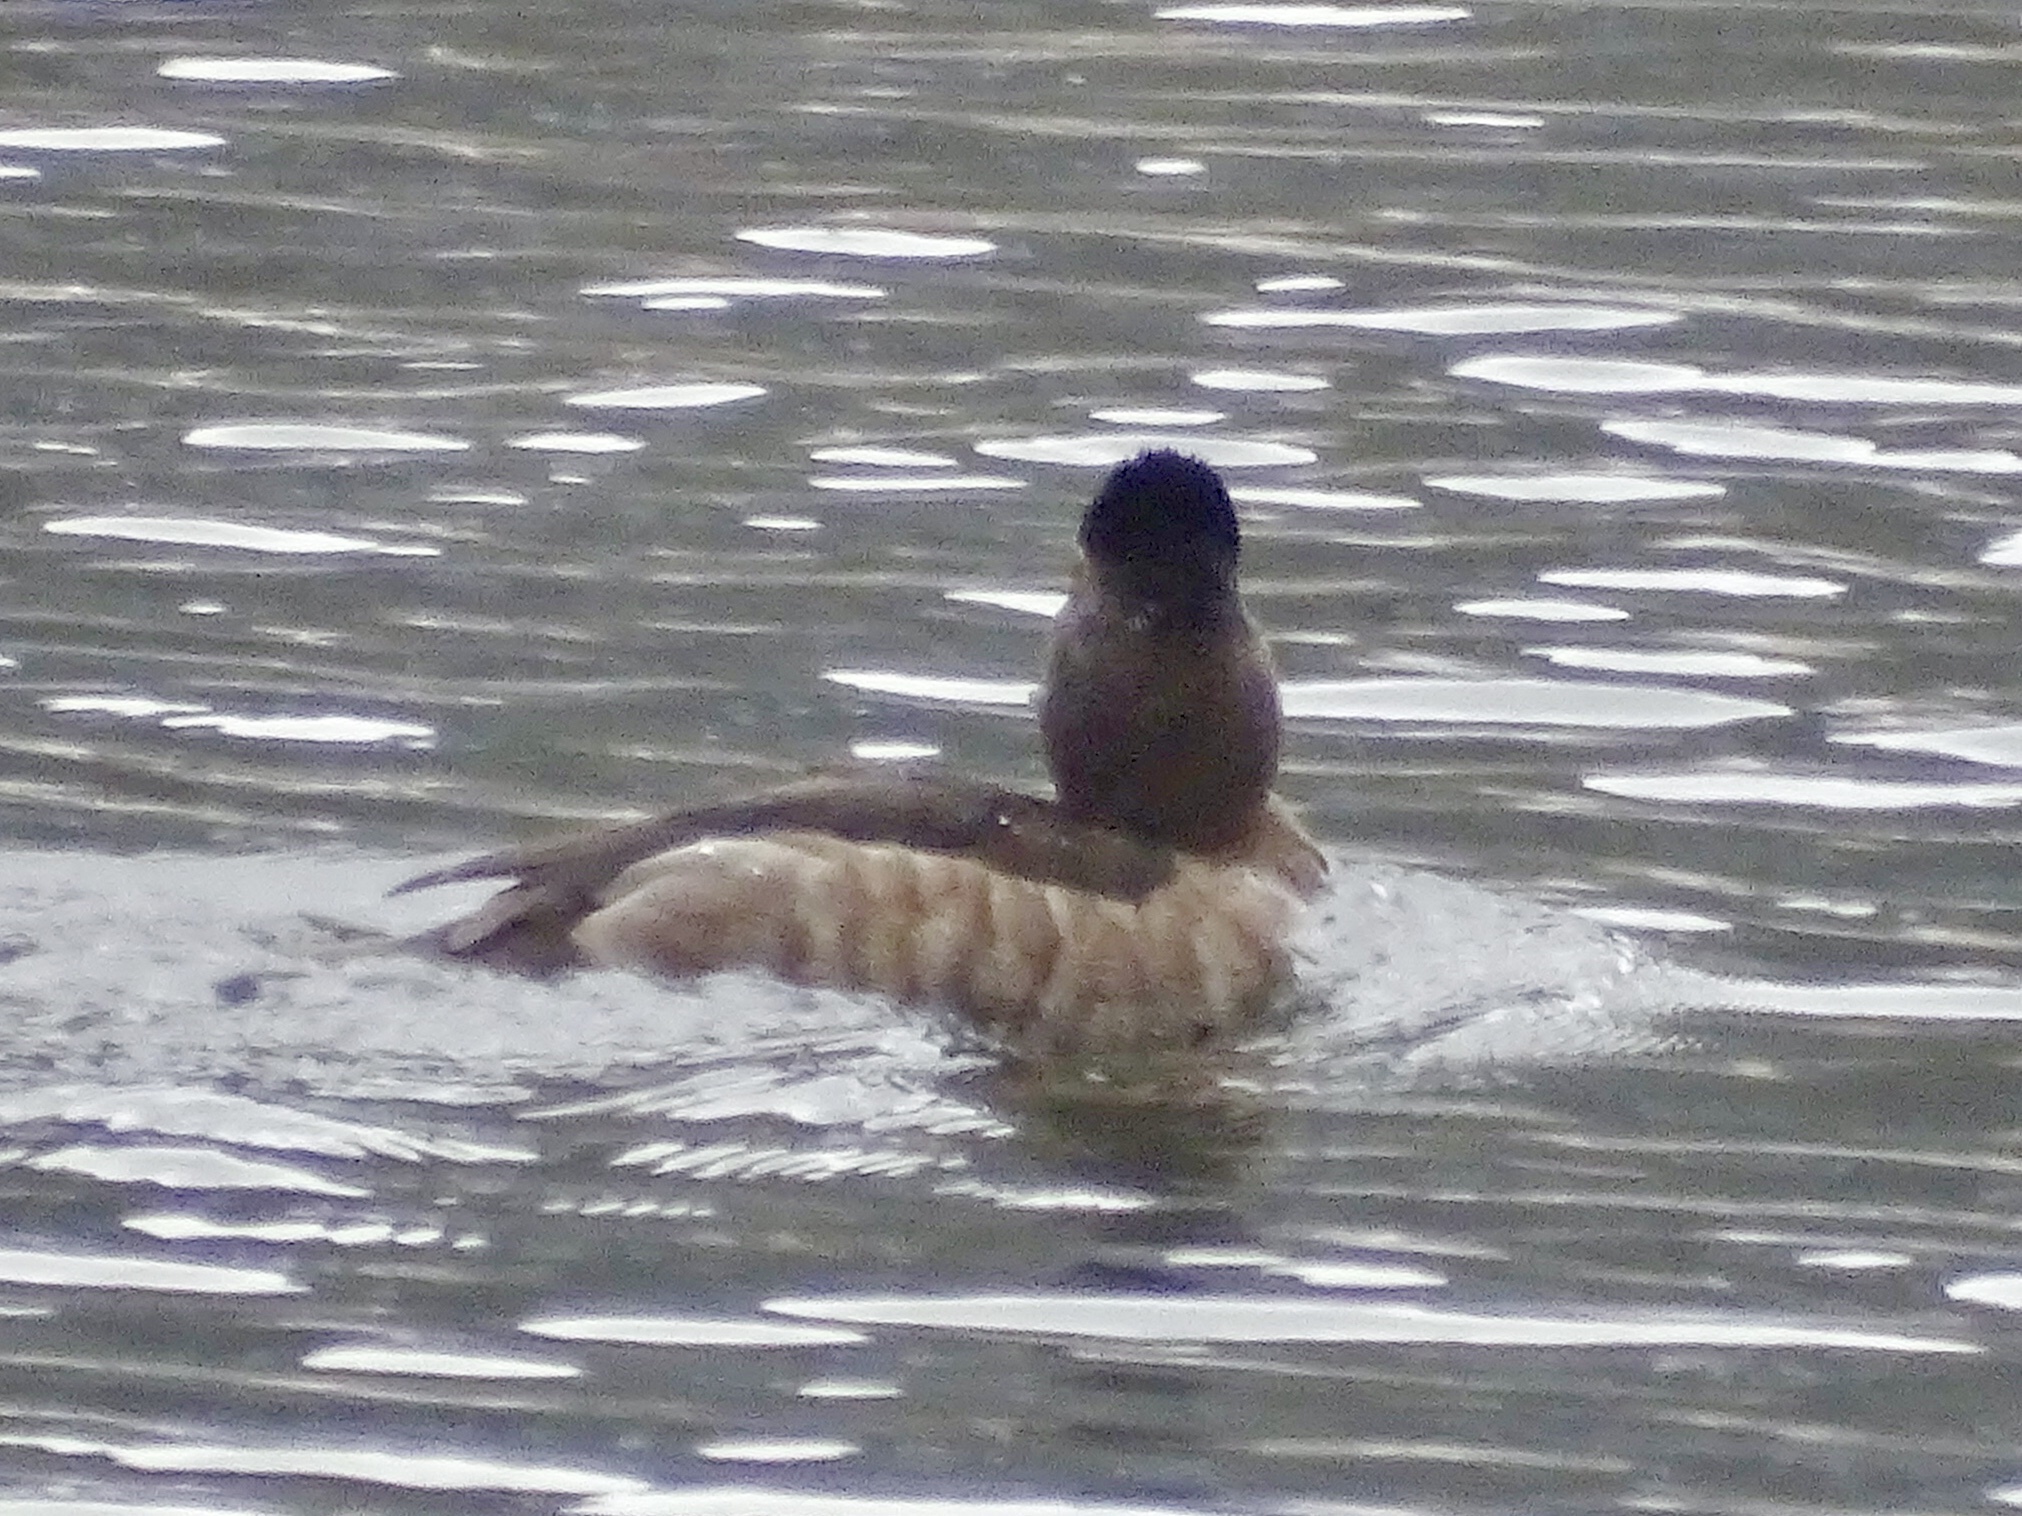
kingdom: Animalia
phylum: Chordata
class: Aves
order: Anseriformes
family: Anatidae
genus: Aythya
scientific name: Aythya collaris
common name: Ring-necked duck
